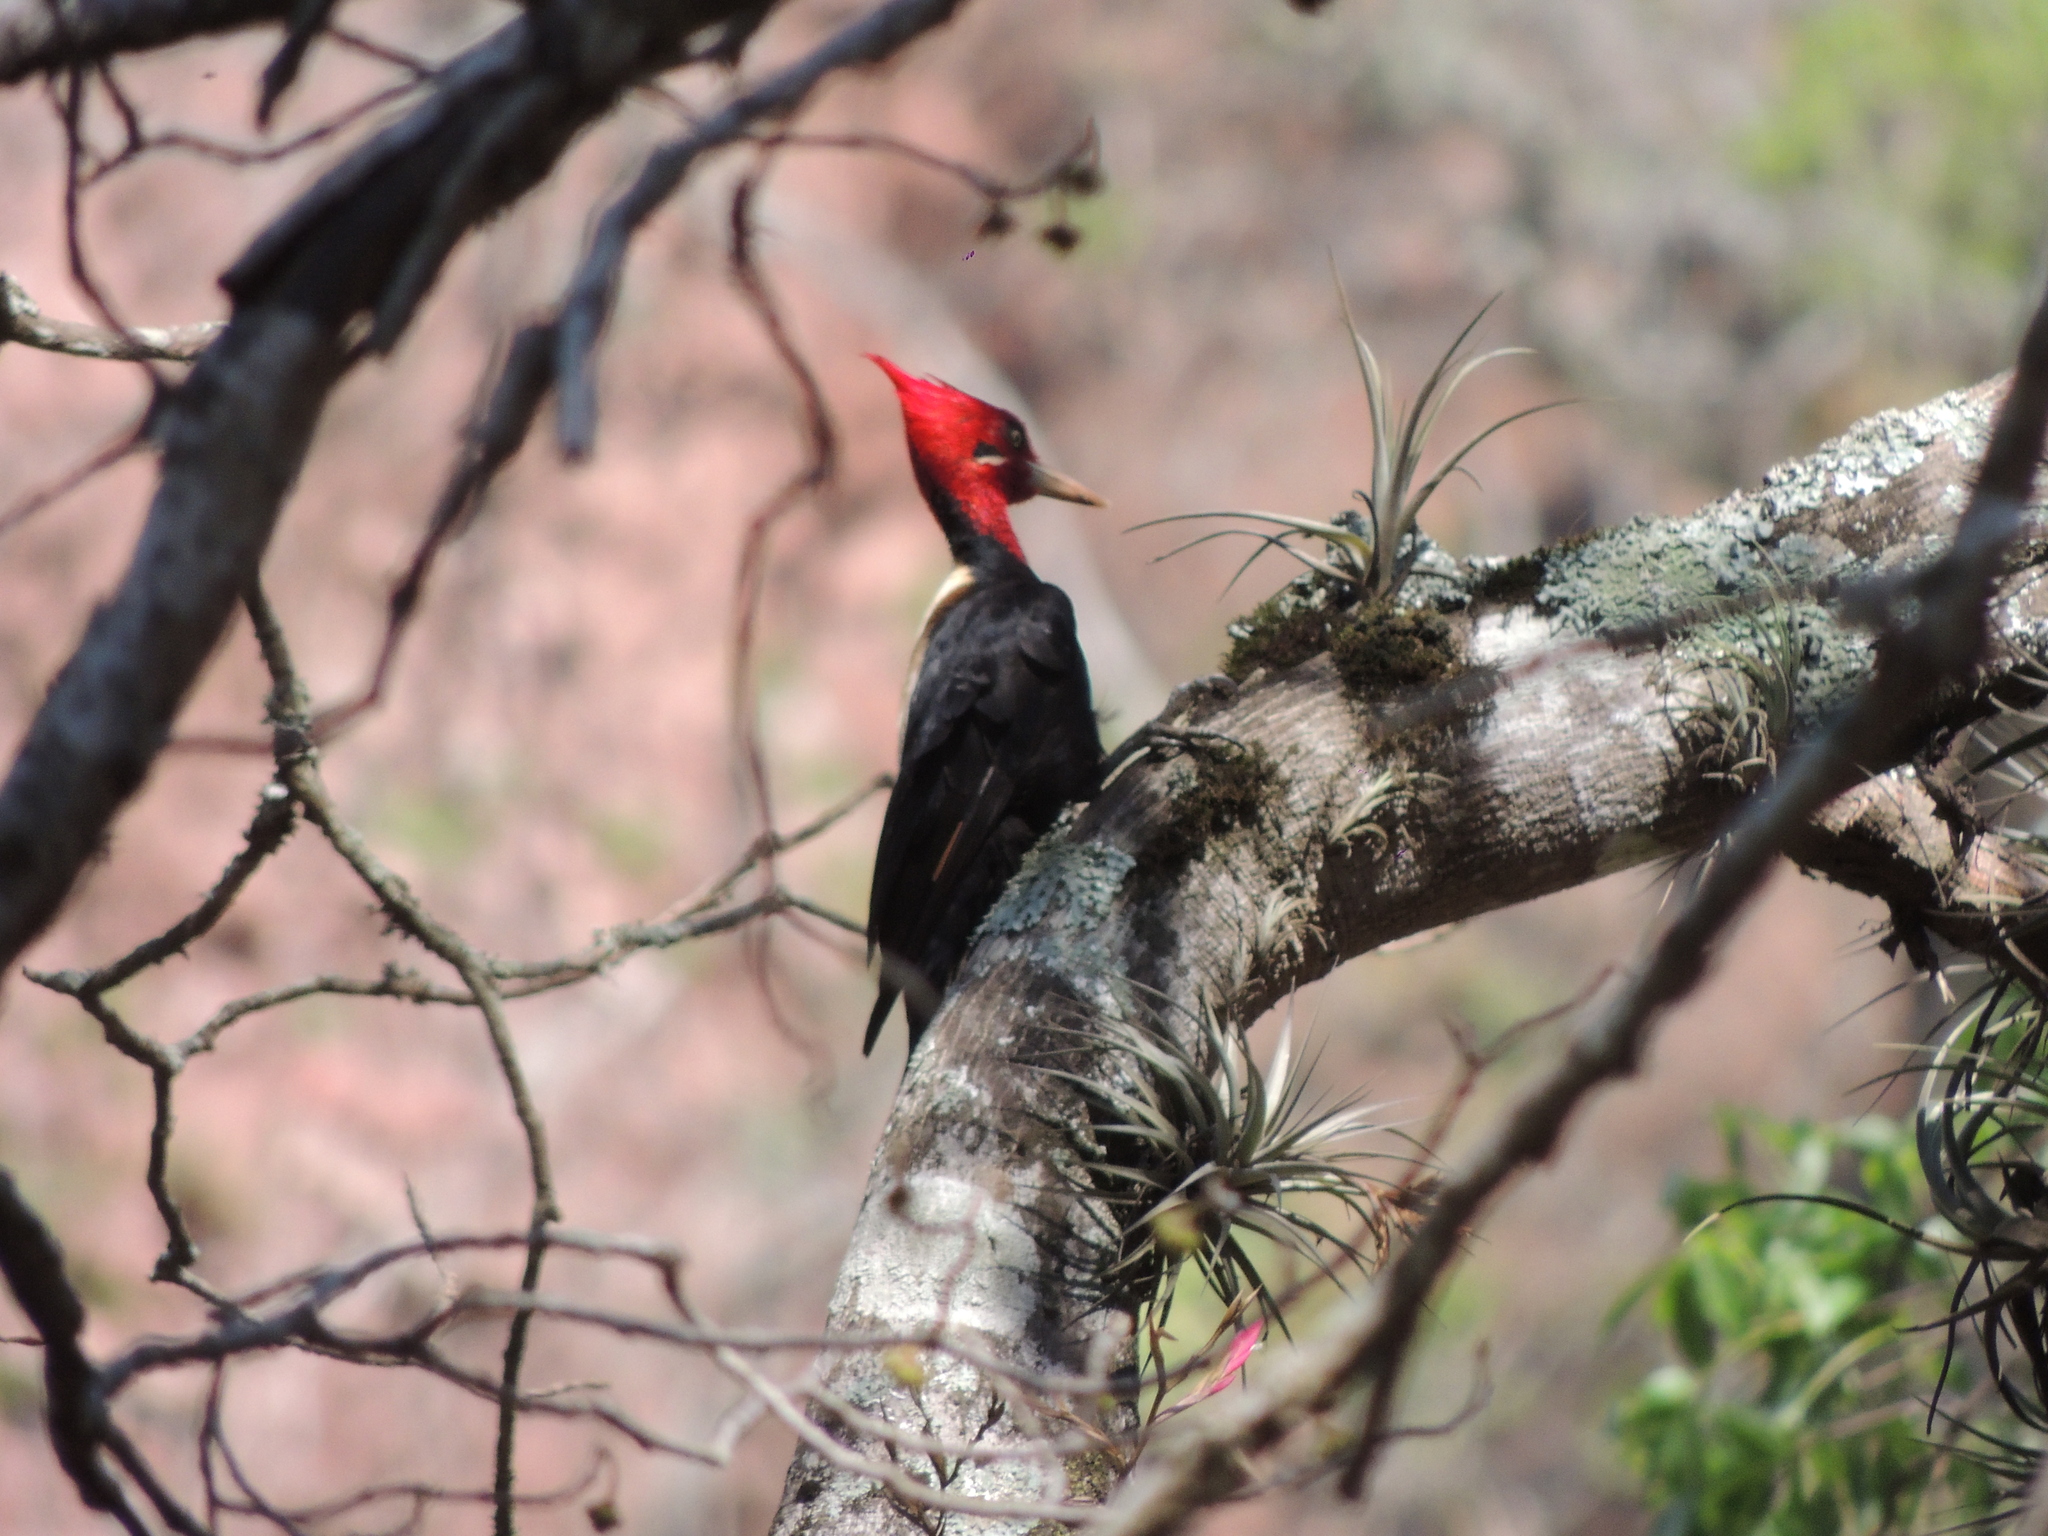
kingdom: Animalia
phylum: Chordata
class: Aves
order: Piciformes
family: Picidae
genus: Campephilus
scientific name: Campephilus leucopogon
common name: Cream-backed woodpecker
